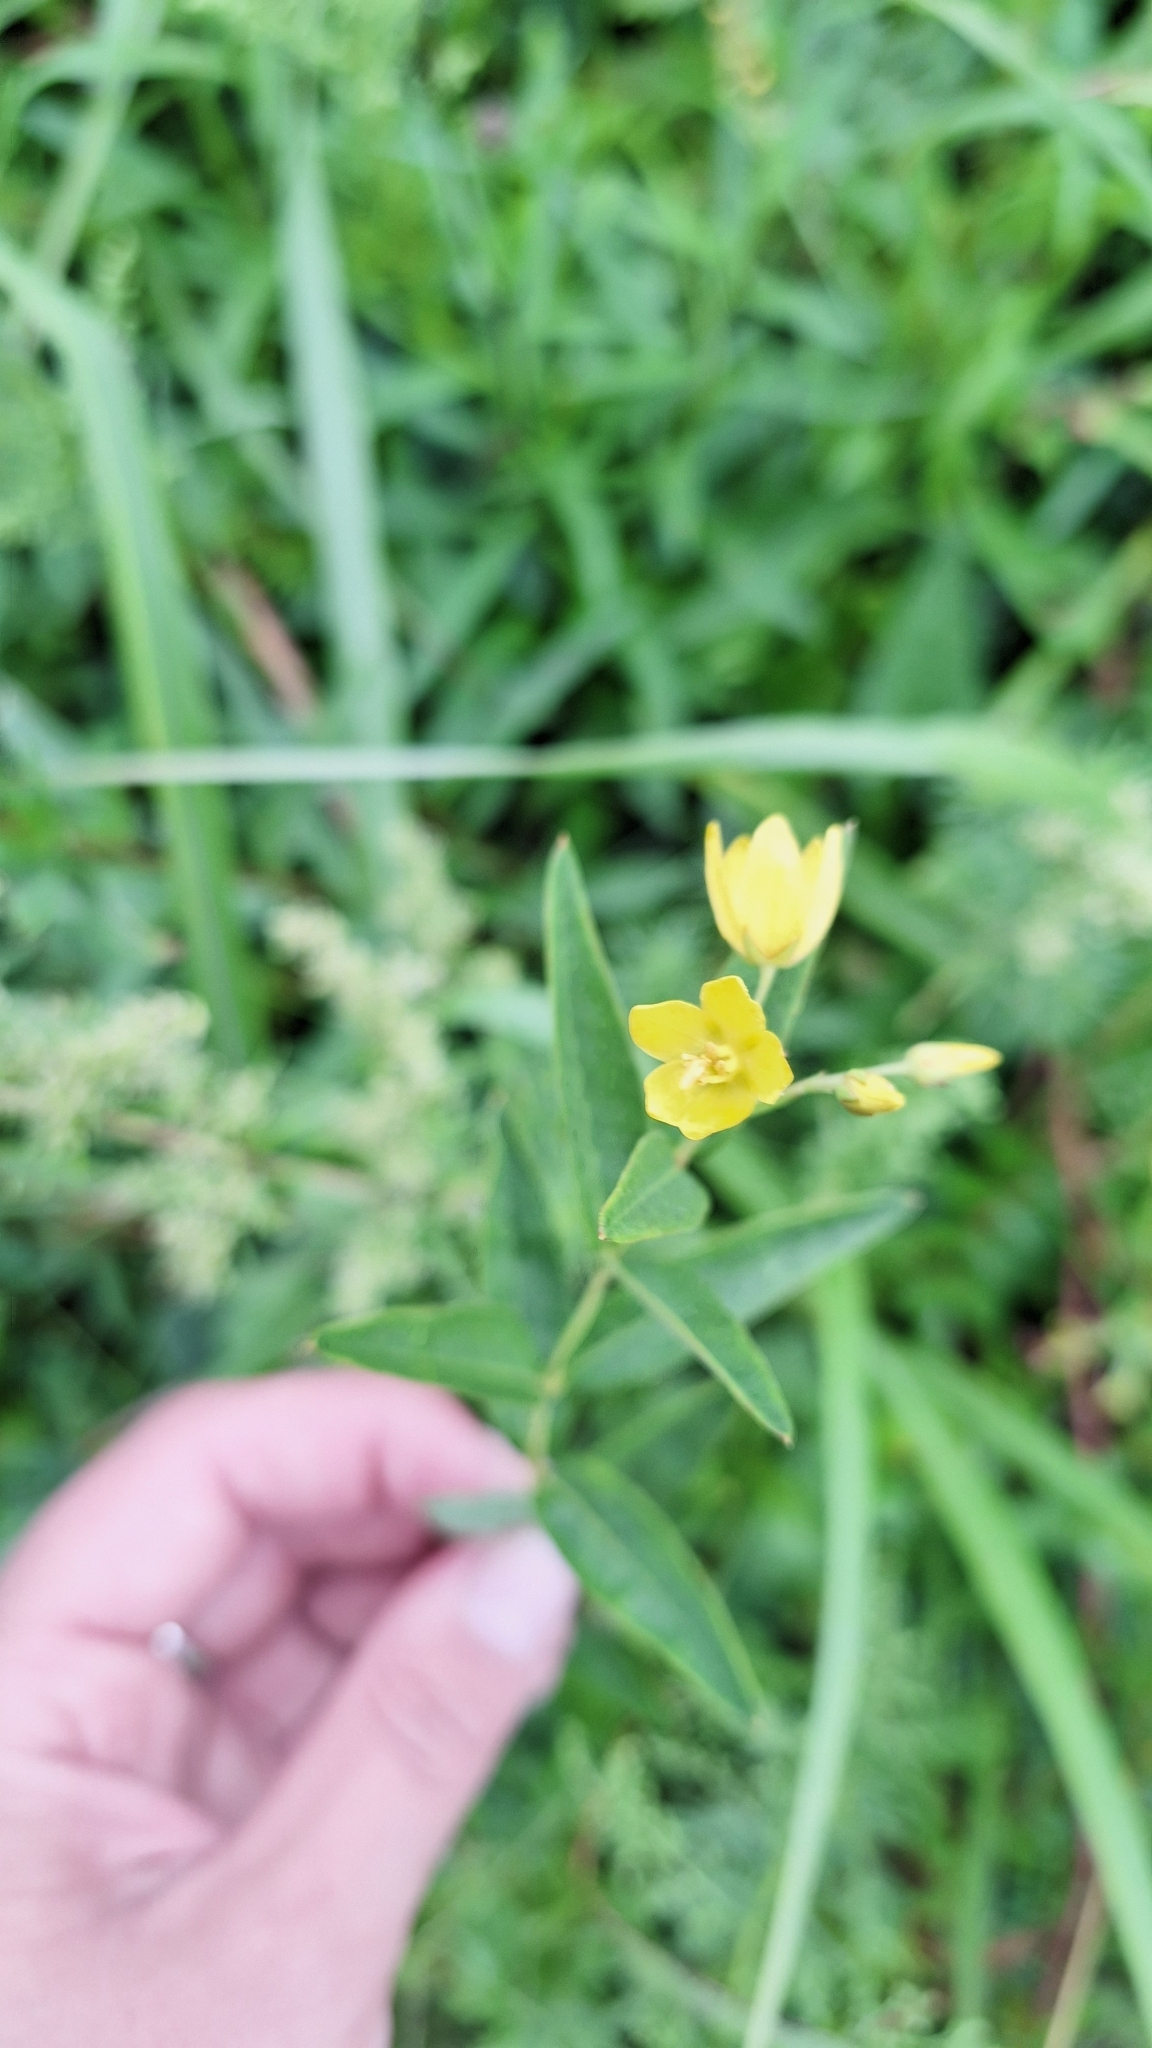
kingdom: Plantae
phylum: Tracheophyta
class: Magnoliopsida
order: Ericales
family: Primulaceae
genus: Lysimachia
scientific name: Lysimachia davurica
